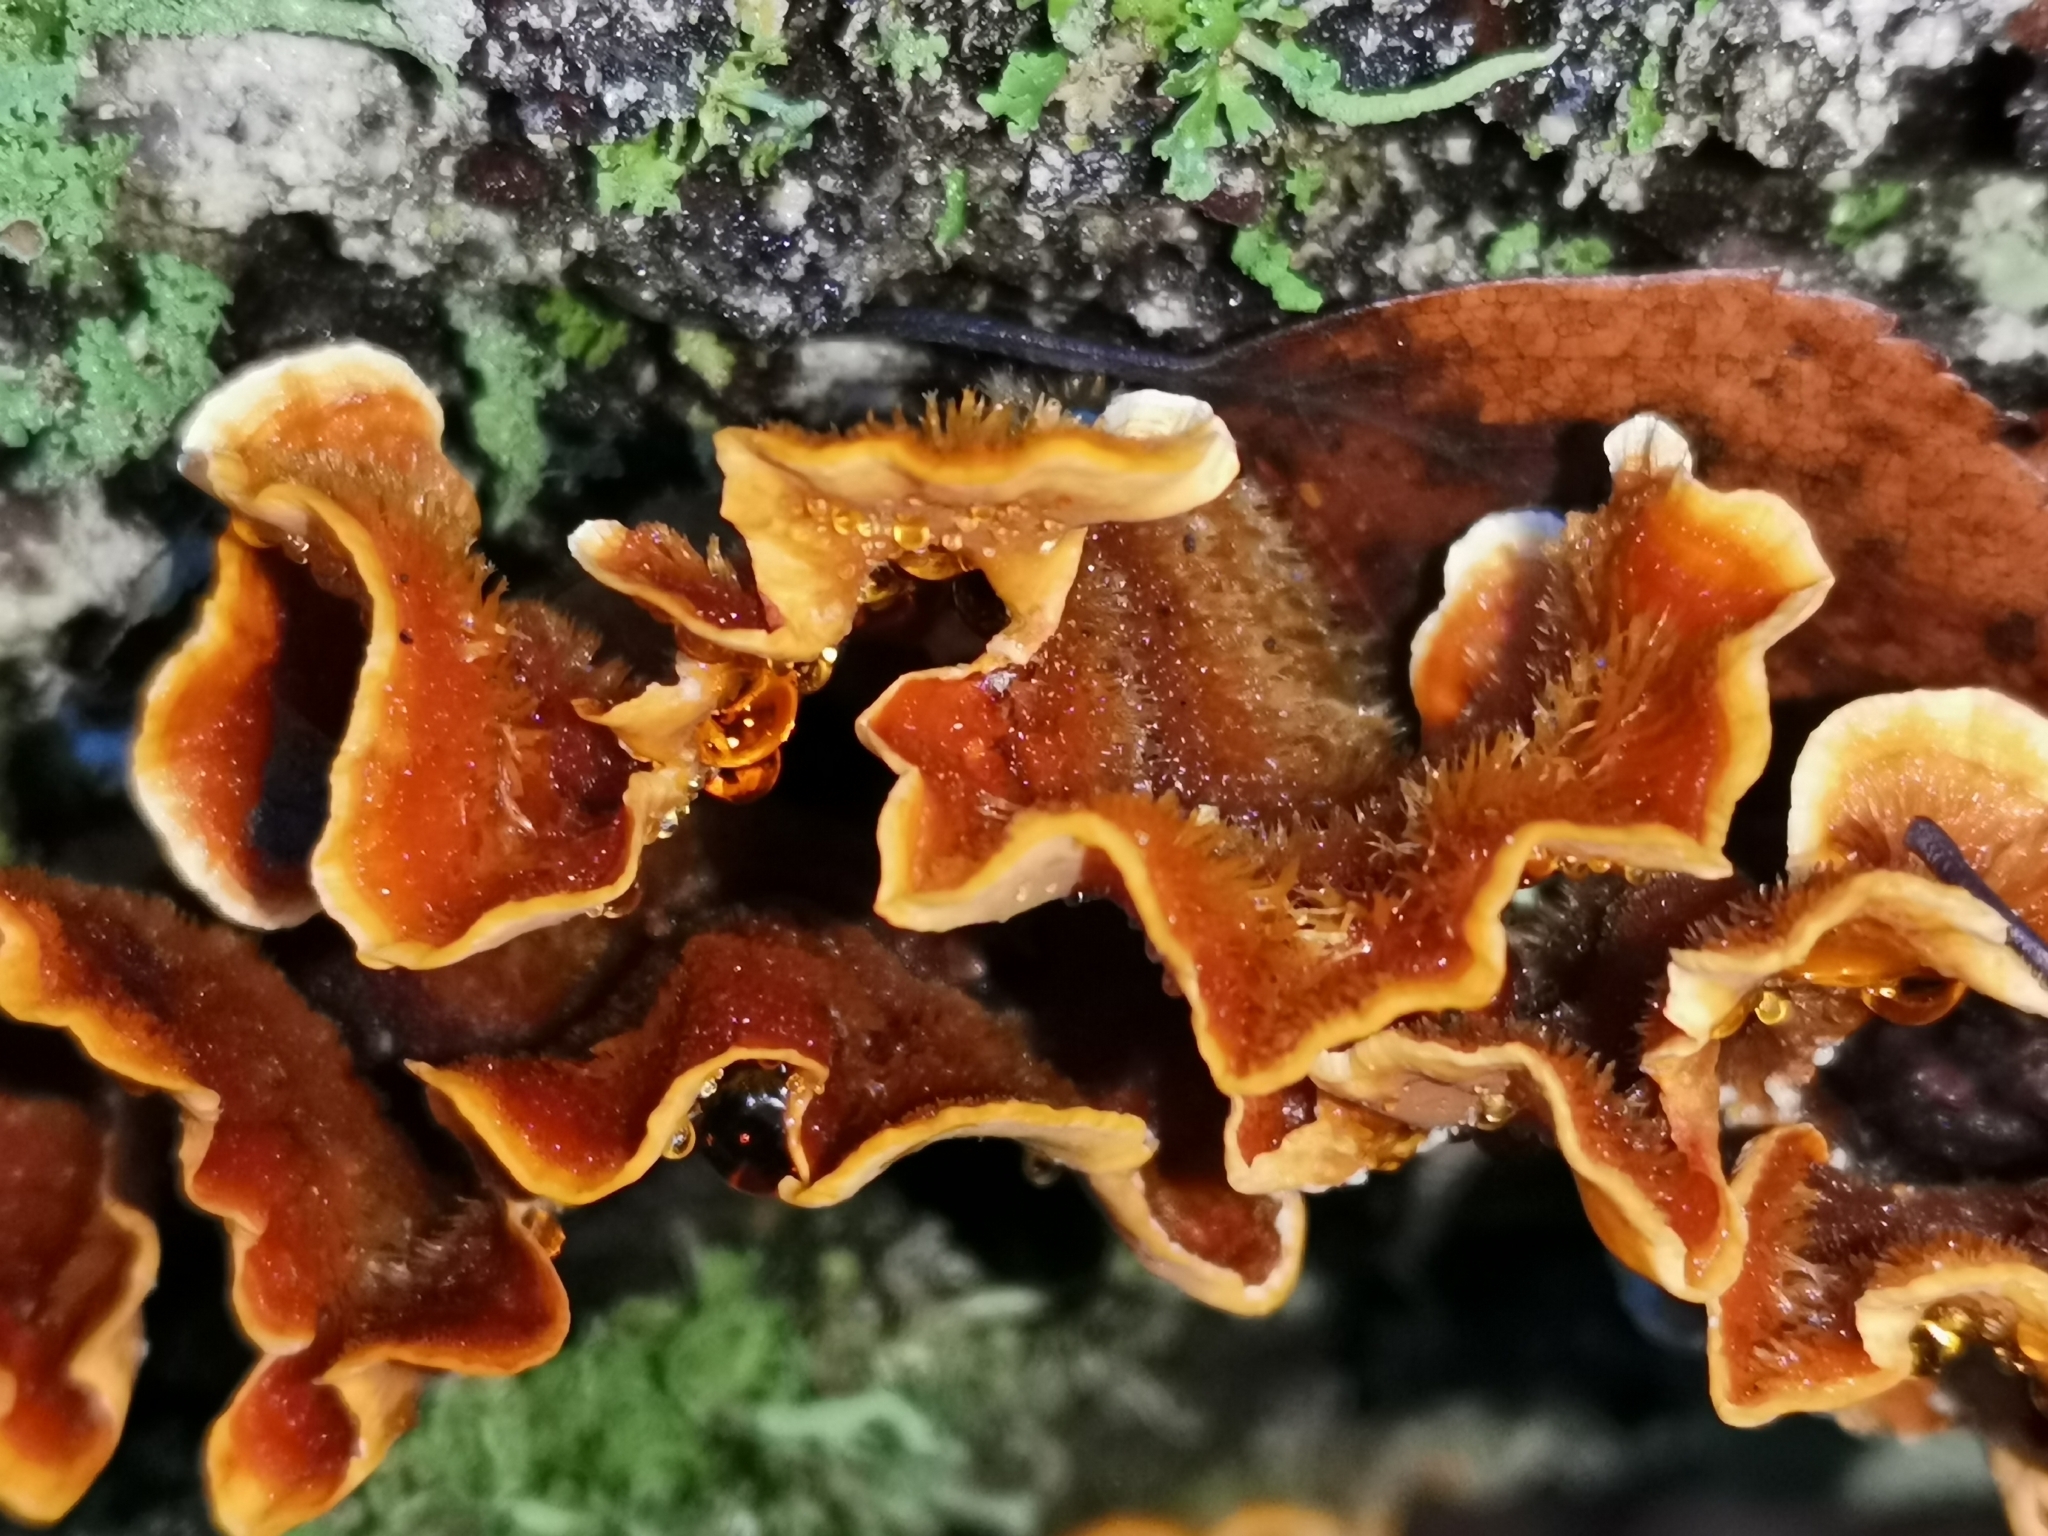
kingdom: Fungi
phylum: Basidiomycota
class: Agaricomycetes
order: Russulales
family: Stereaceae
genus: Stereum
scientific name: Stereum hirsutum
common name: Hairy curtain crust
